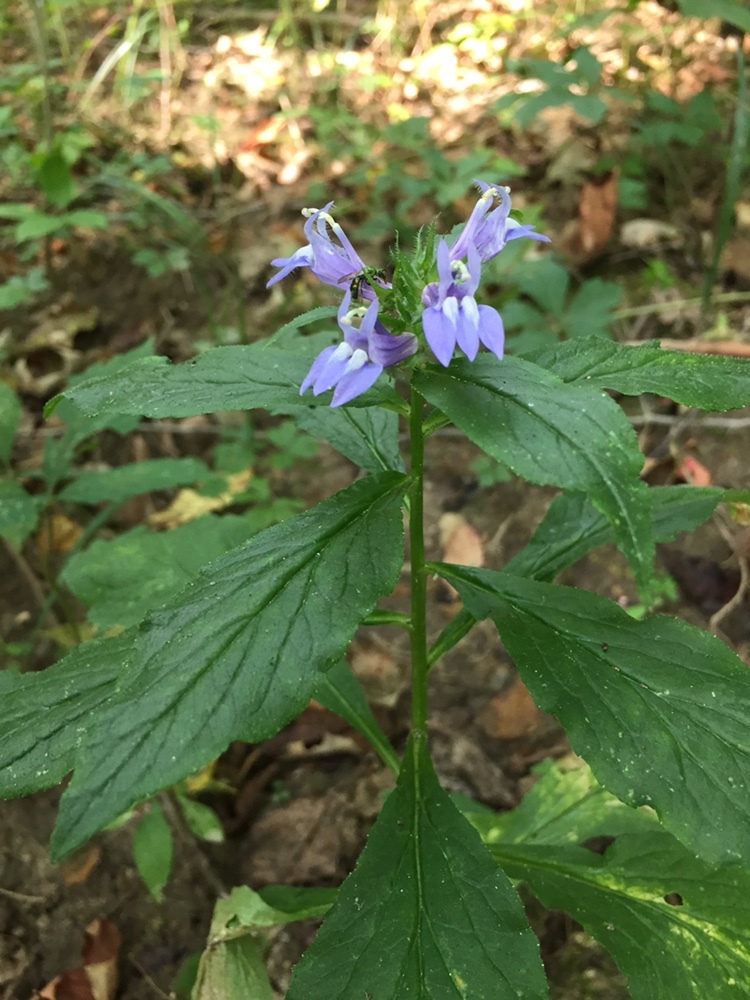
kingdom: Plantae
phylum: Tracheophyta
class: Magnoliopsida
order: Asterales
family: Campanulaceae
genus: Lobelia
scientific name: Lobelia siphilitica
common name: Great lobelia
